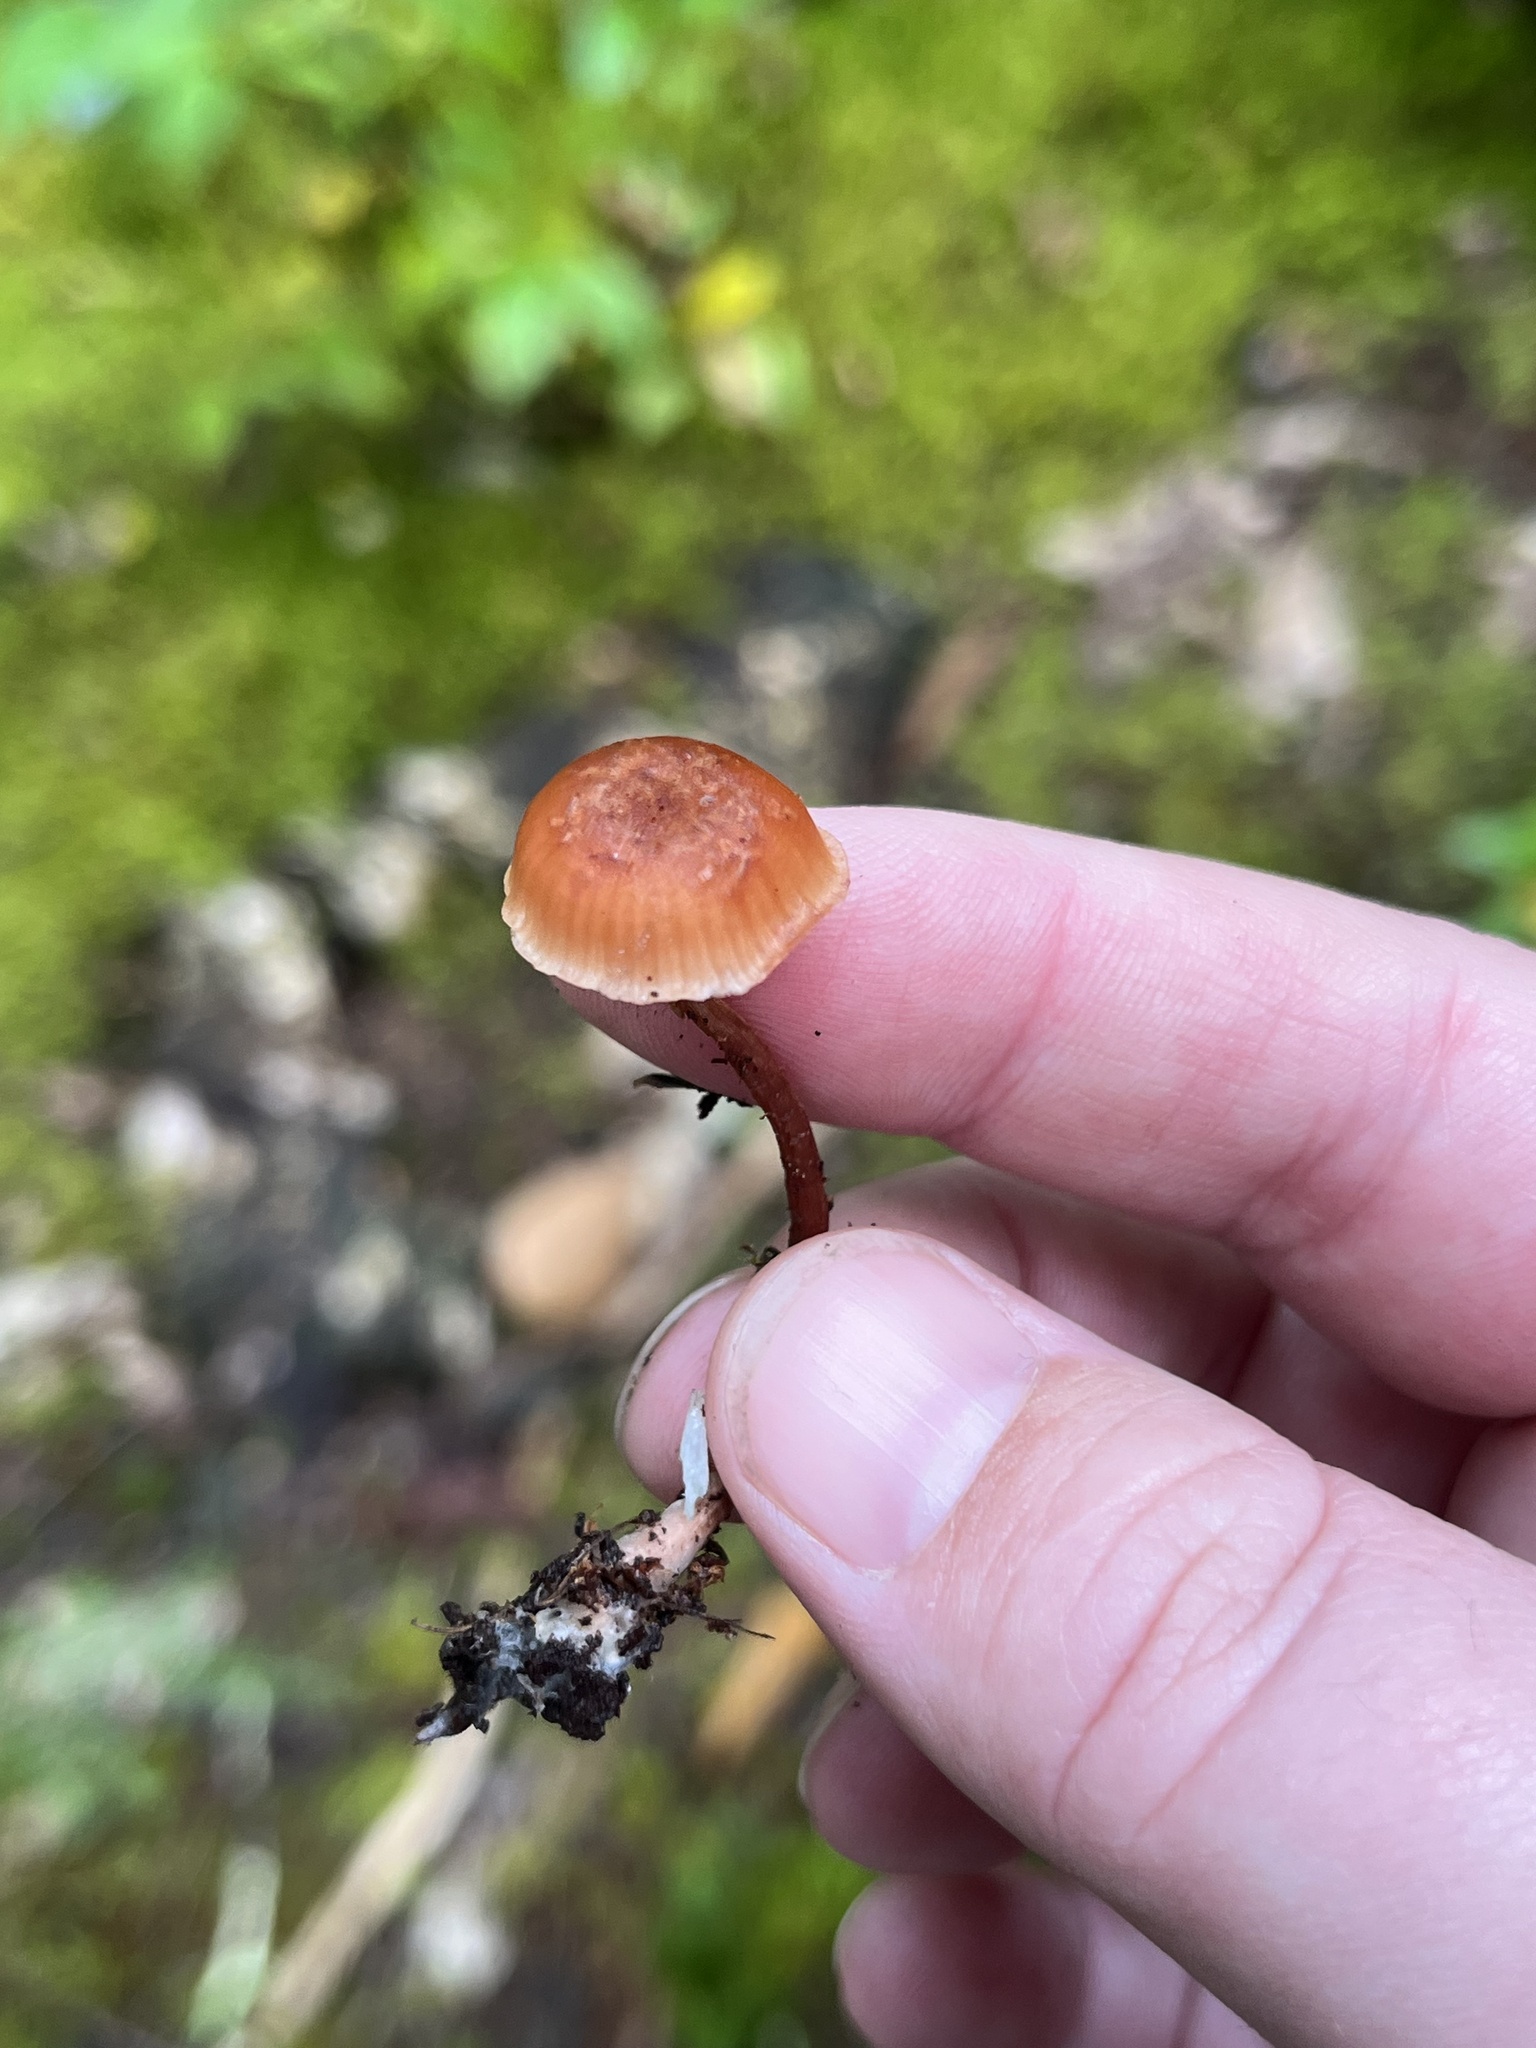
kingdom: Fungi
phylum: Basidiomycota
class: Agaricomycetes
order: Agaricales
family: Hydnangiaceae
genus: Laccaria
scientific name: Laccaria ohiensis
